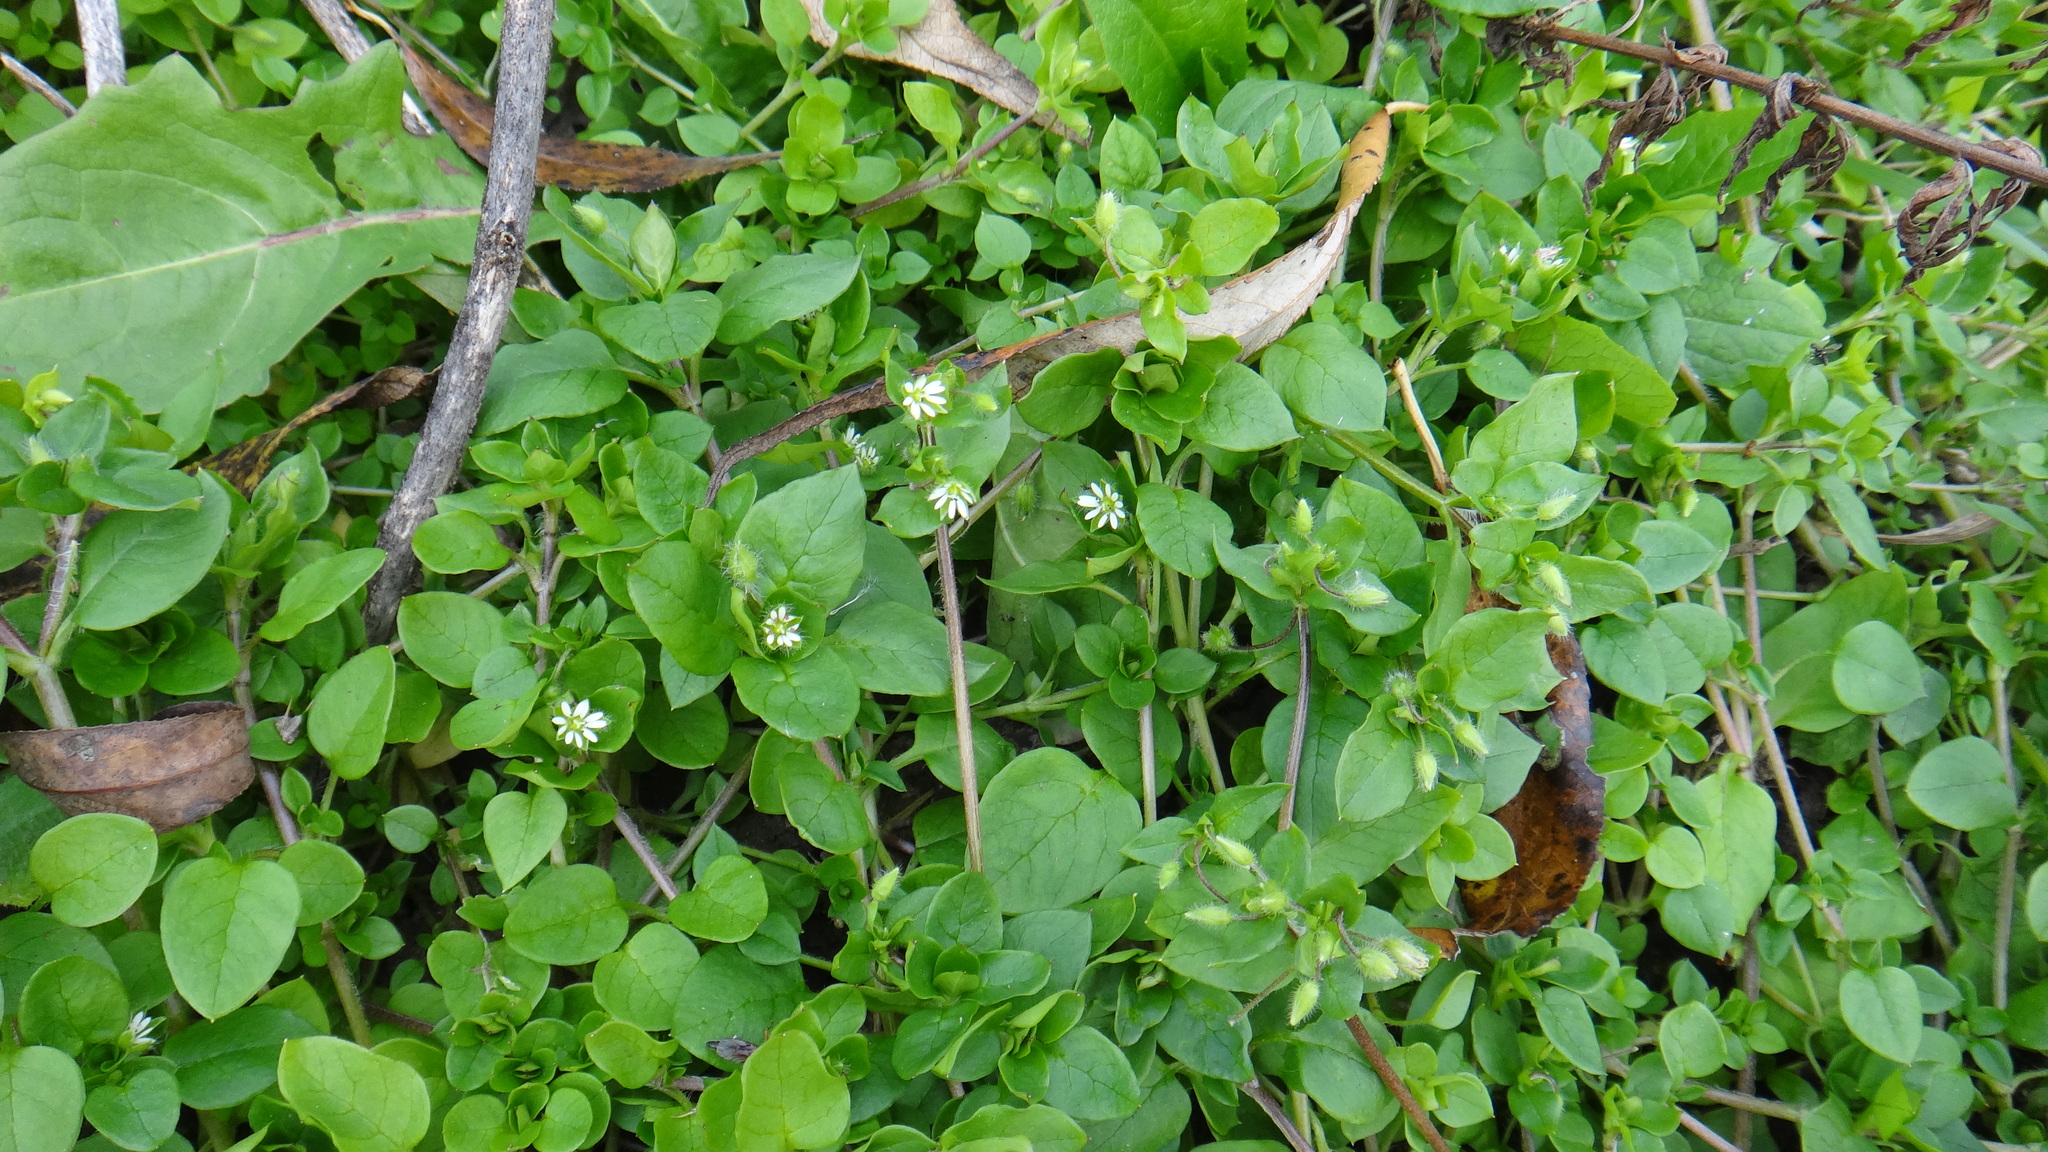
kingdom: Plantae
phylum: Tracheophyta
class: Magnoliopsida
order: Caryophyllales
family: Caryophyllaceae
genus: Stellaria
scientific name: Stellaria media
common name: Common chickweed
